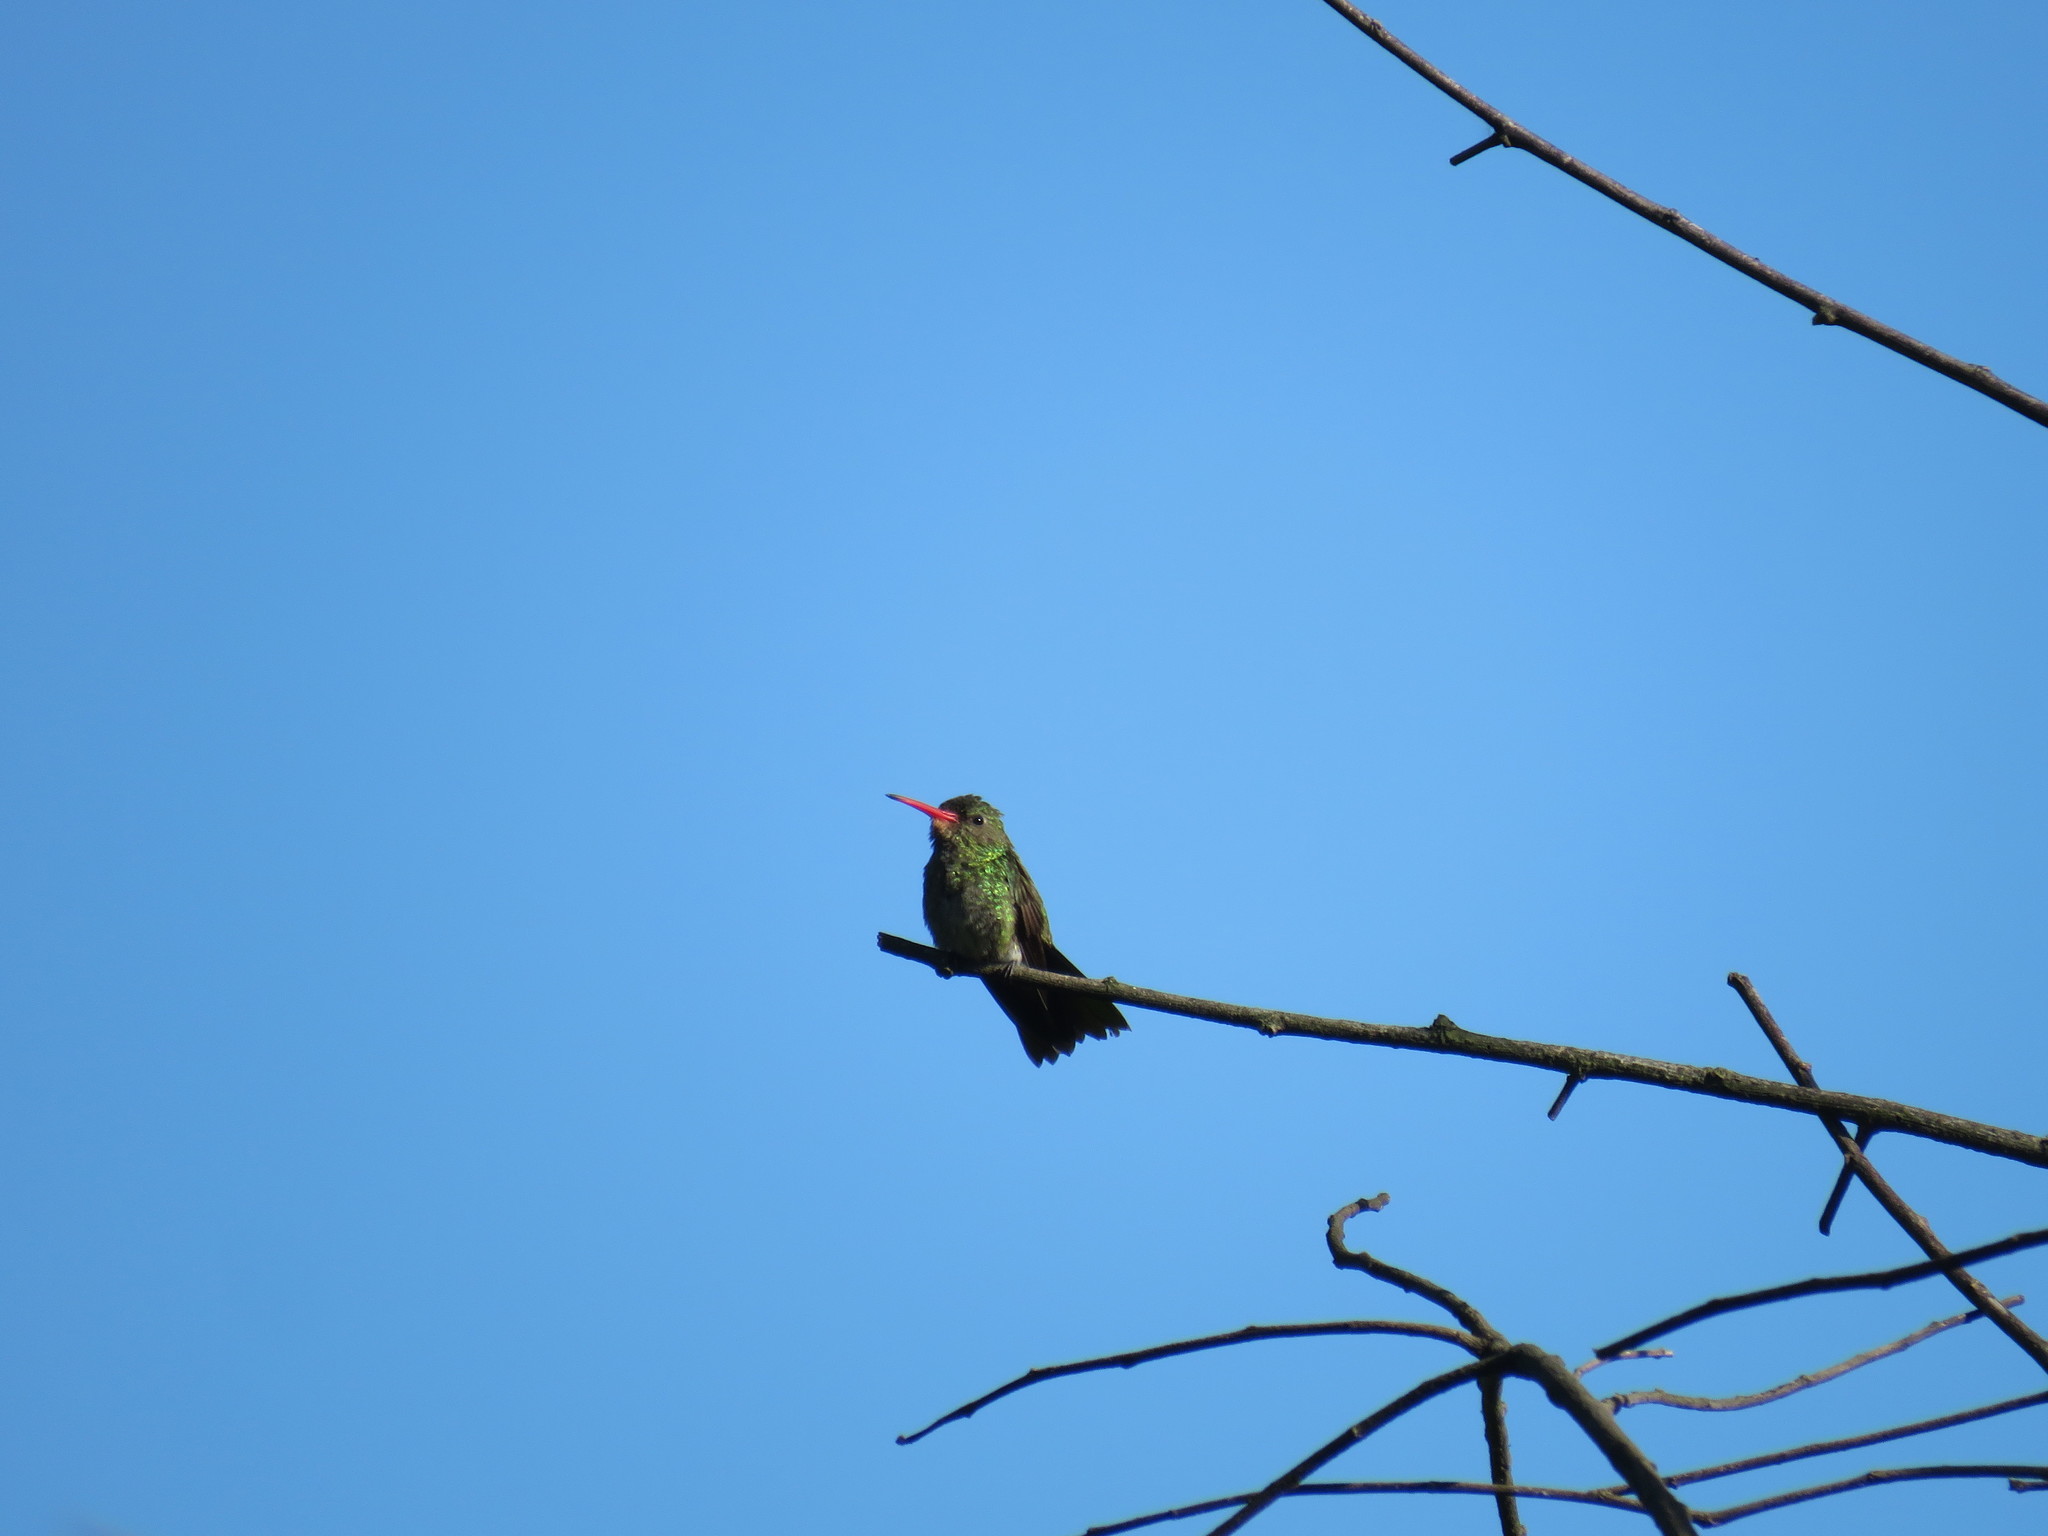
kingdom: Animalia
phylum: Chordata
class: Aves
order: Apodiformes
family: Trochilidae
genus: Hylocharis
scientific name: Hylocharis chrysura
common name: Gilded sapphire
